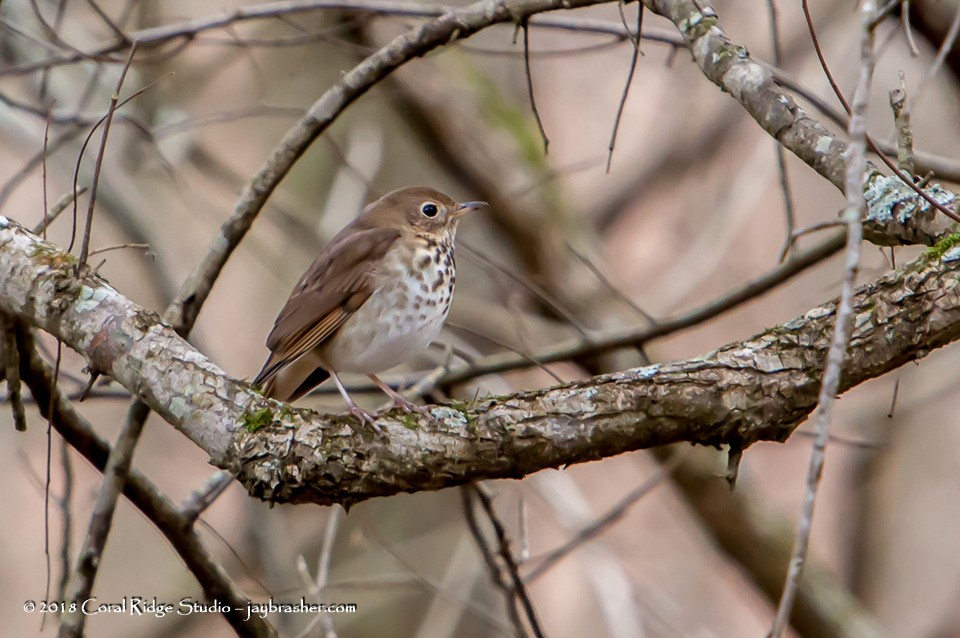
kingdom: Animalia
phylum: Chordata
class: Aves
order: Passeriformes
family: Turdidae
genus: Catharus
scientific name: Catharus guttatus
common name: Hermit thrush
